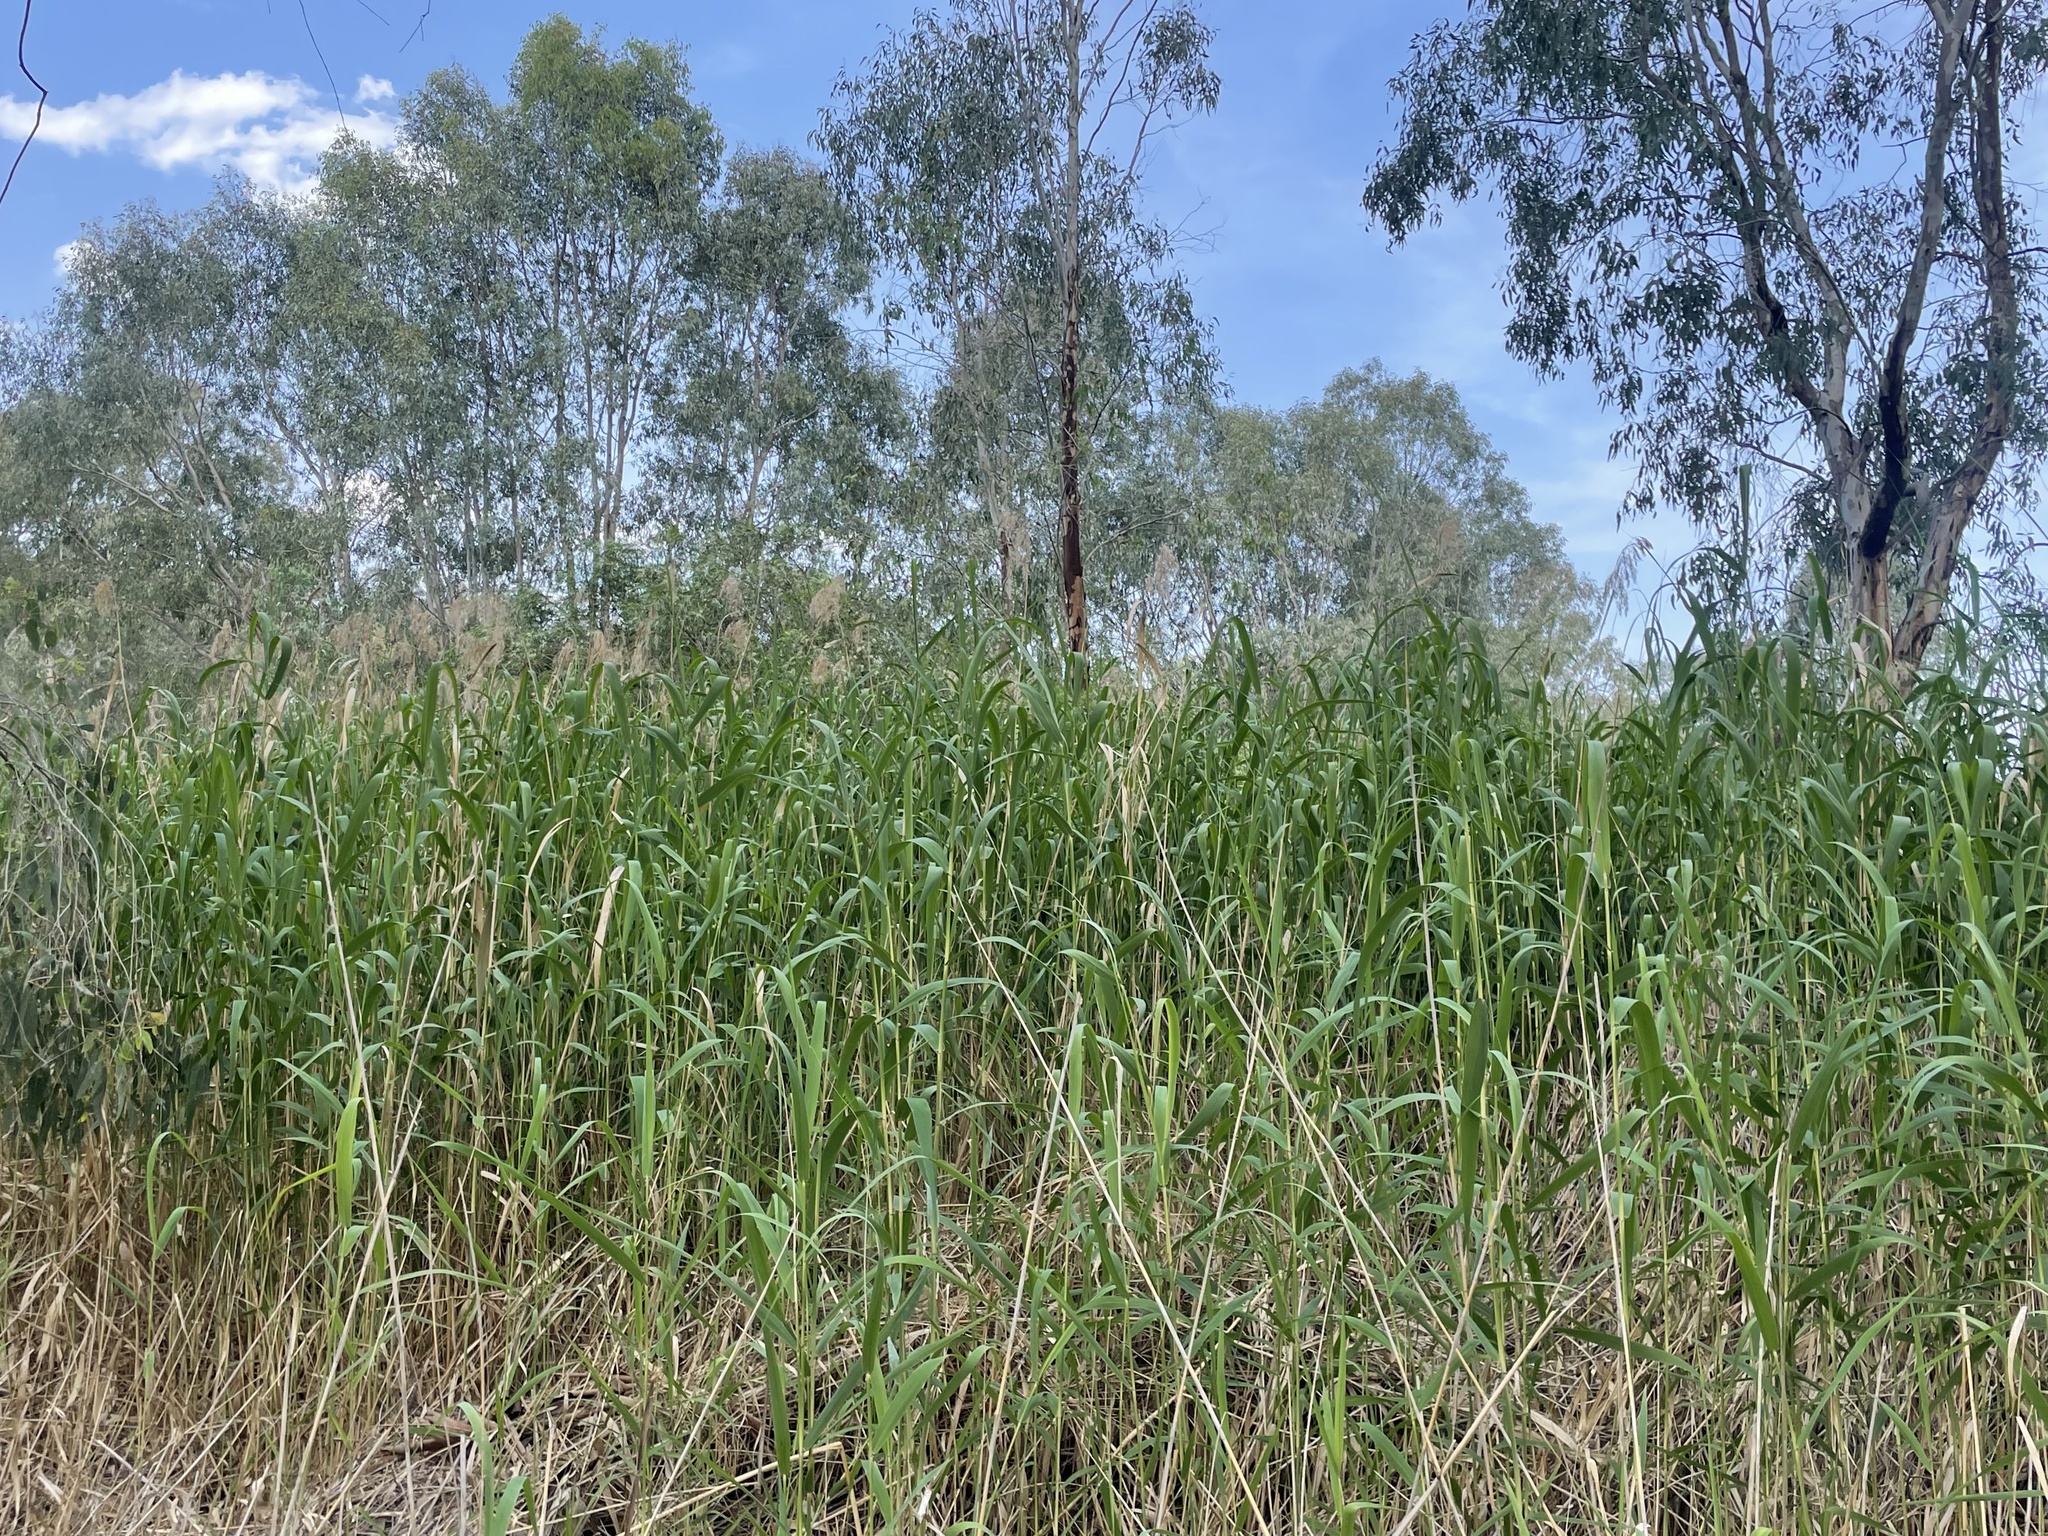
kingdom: Plantae
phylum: Tracheophyta
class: Liliopsida
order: Poales
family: Poaceae
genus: Phragmites
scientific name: Phragmites australis
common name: Common reed
